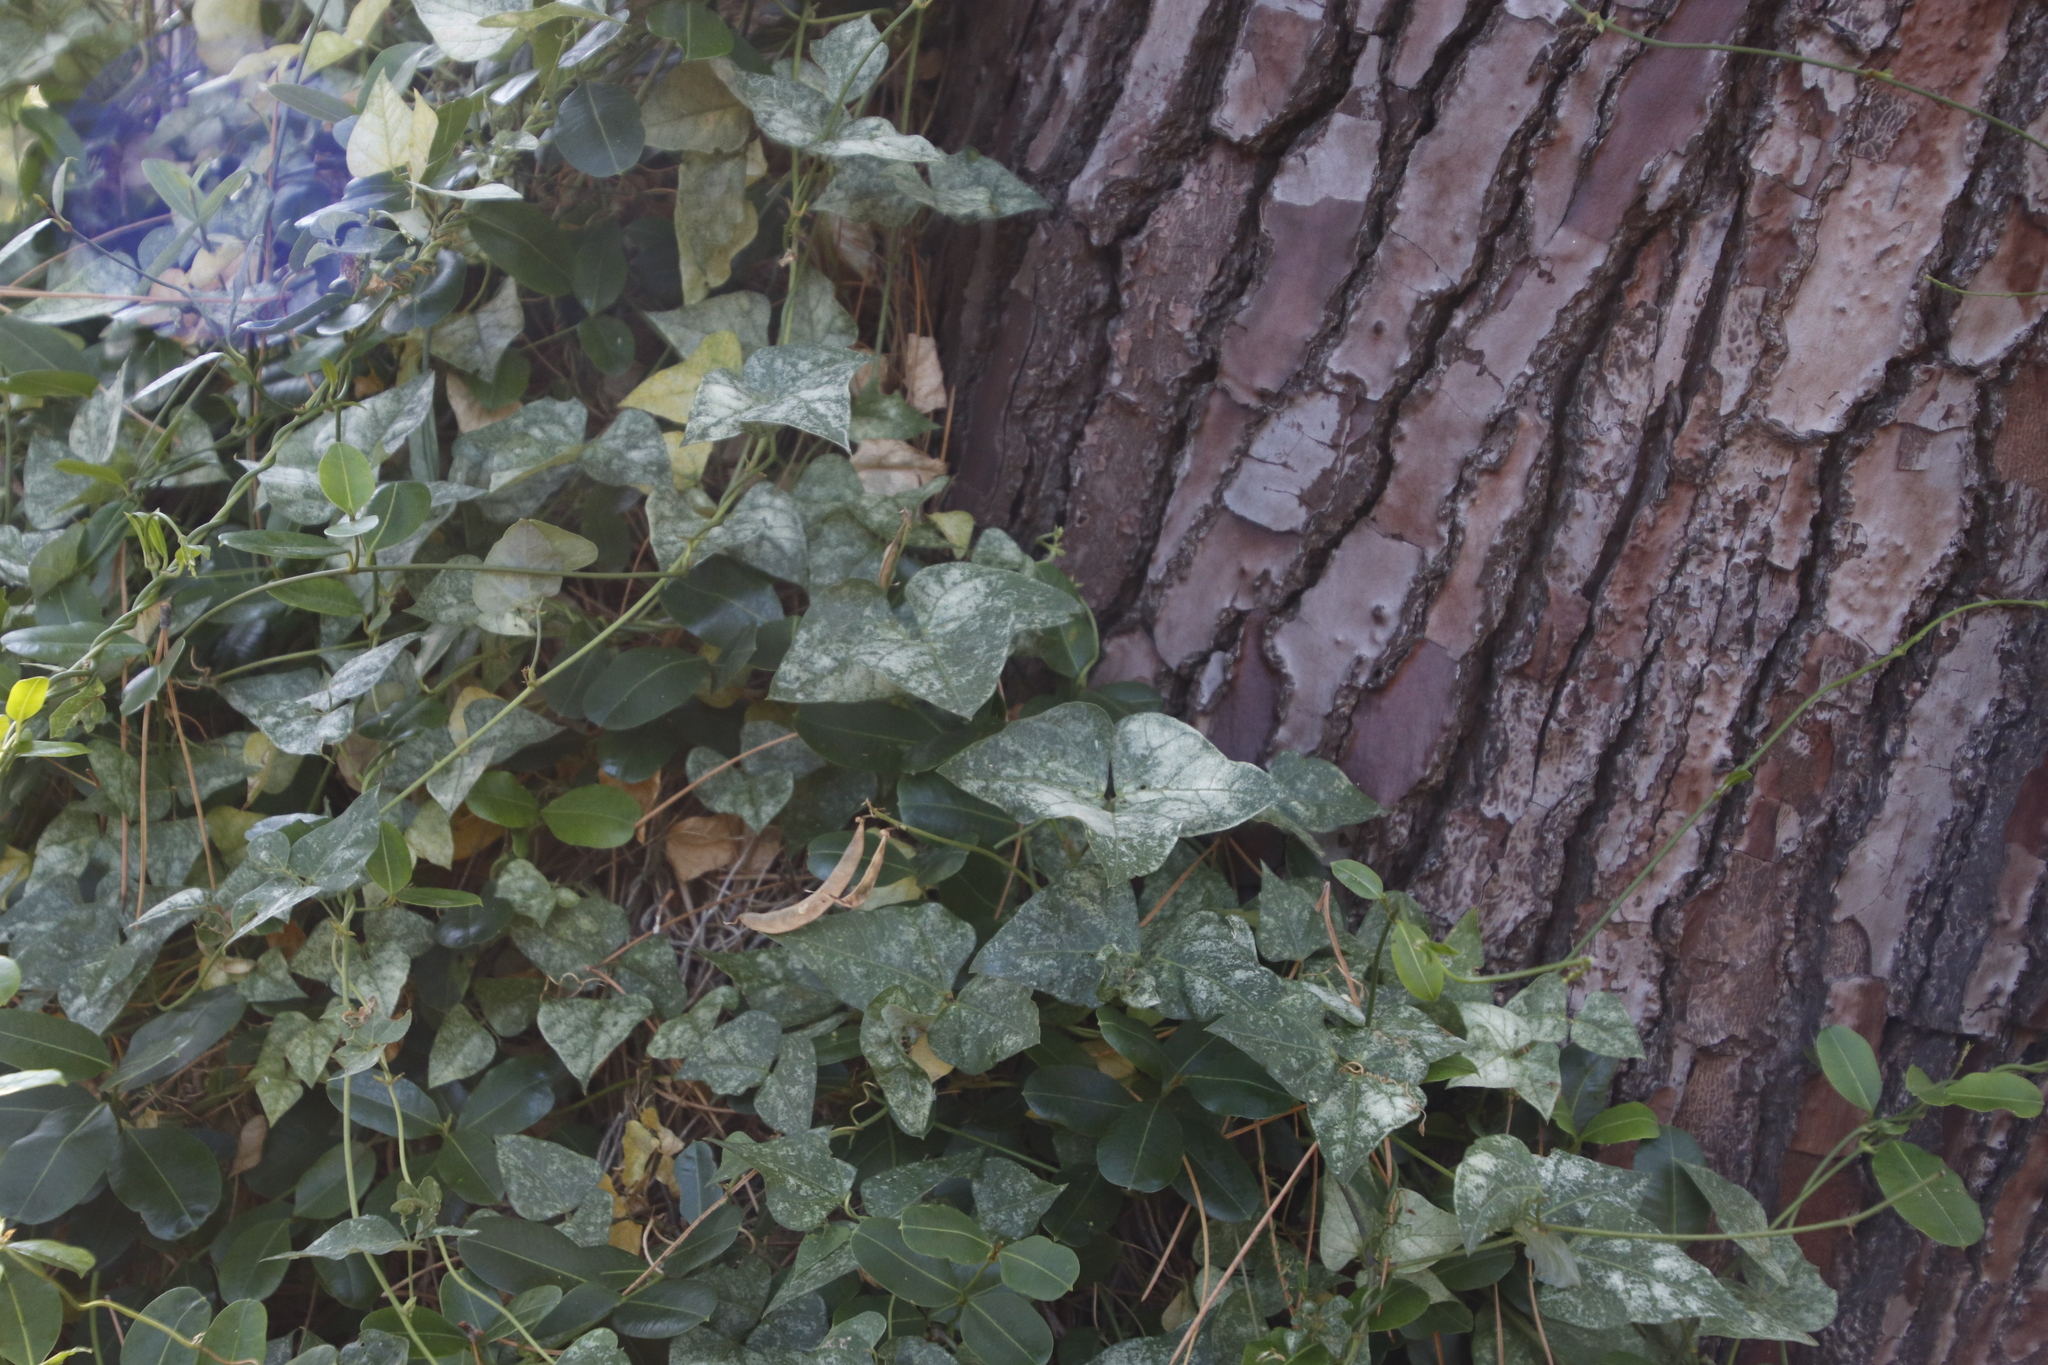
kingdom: Plantae
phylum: Tracheophyta
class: Magnoliopsida
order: Fabales
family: Fabaceae
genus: Dipogon
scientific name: Dipogon lignosus
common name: Okie bean
